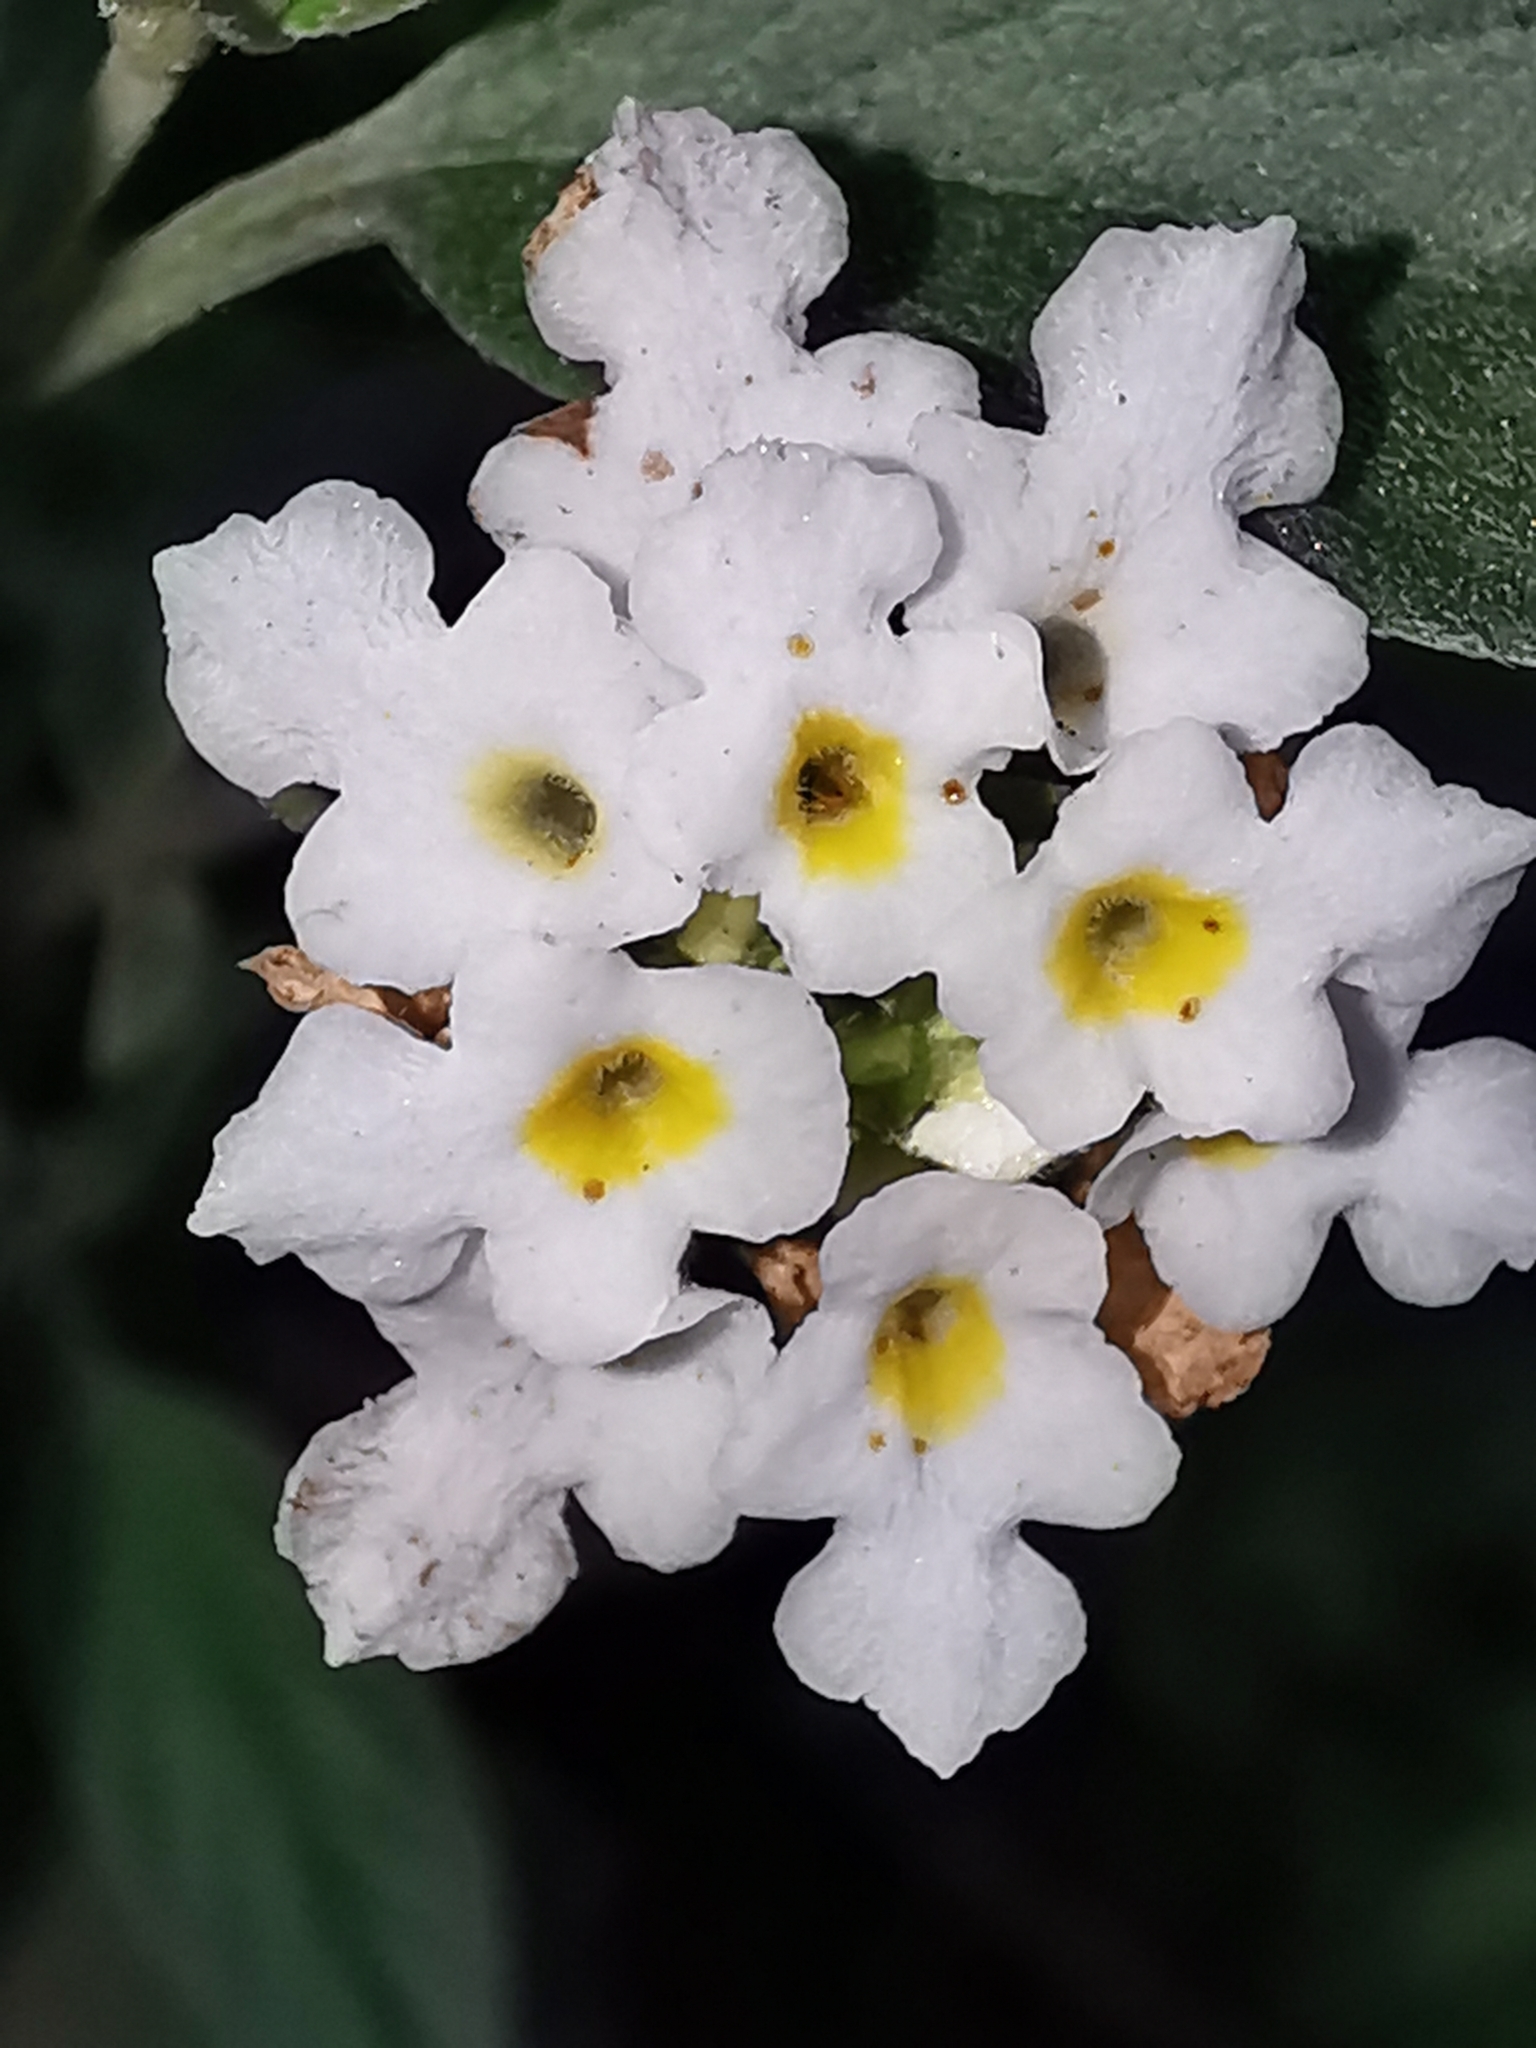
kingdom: Plantae
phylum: Tracheophyta
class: Magnoliopsida
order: Lamiales
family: Verbenaceae
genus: Lantana
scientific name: Lantana canescens
